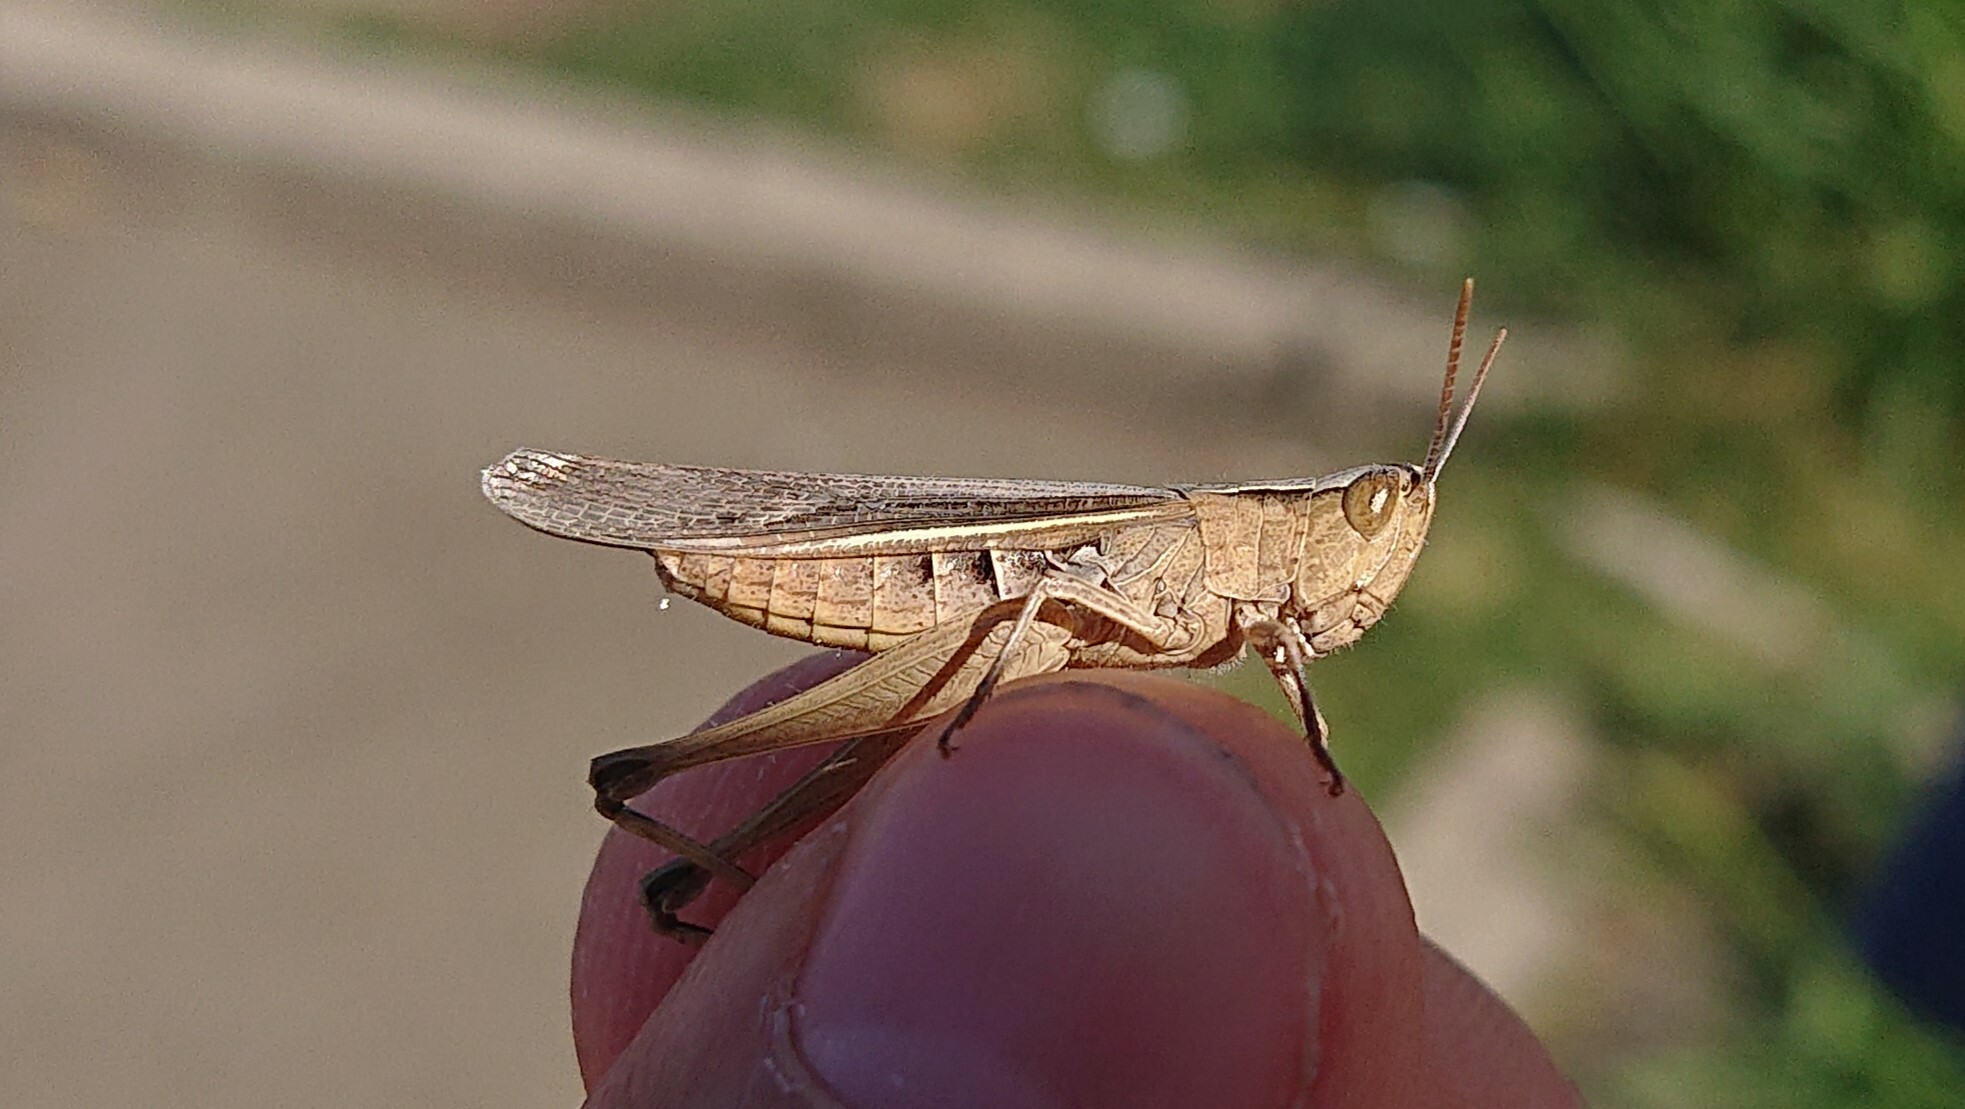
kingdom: Animalia
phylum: Arthropoda
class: Insecta
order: Orthoptera
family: Acrididae
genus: Chorthippus
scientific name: Chorthippus loratus
